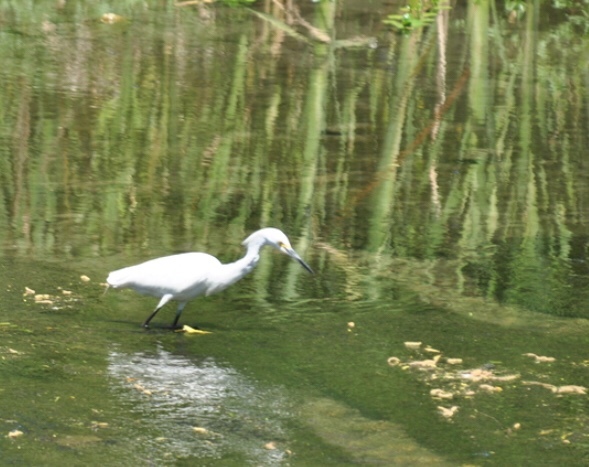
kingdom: Animalia
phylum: Chordata
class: Aves
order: Pelecaniformes
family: Ardeidae
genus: Egretta
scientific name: Egretta thula
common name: Snowy egret
